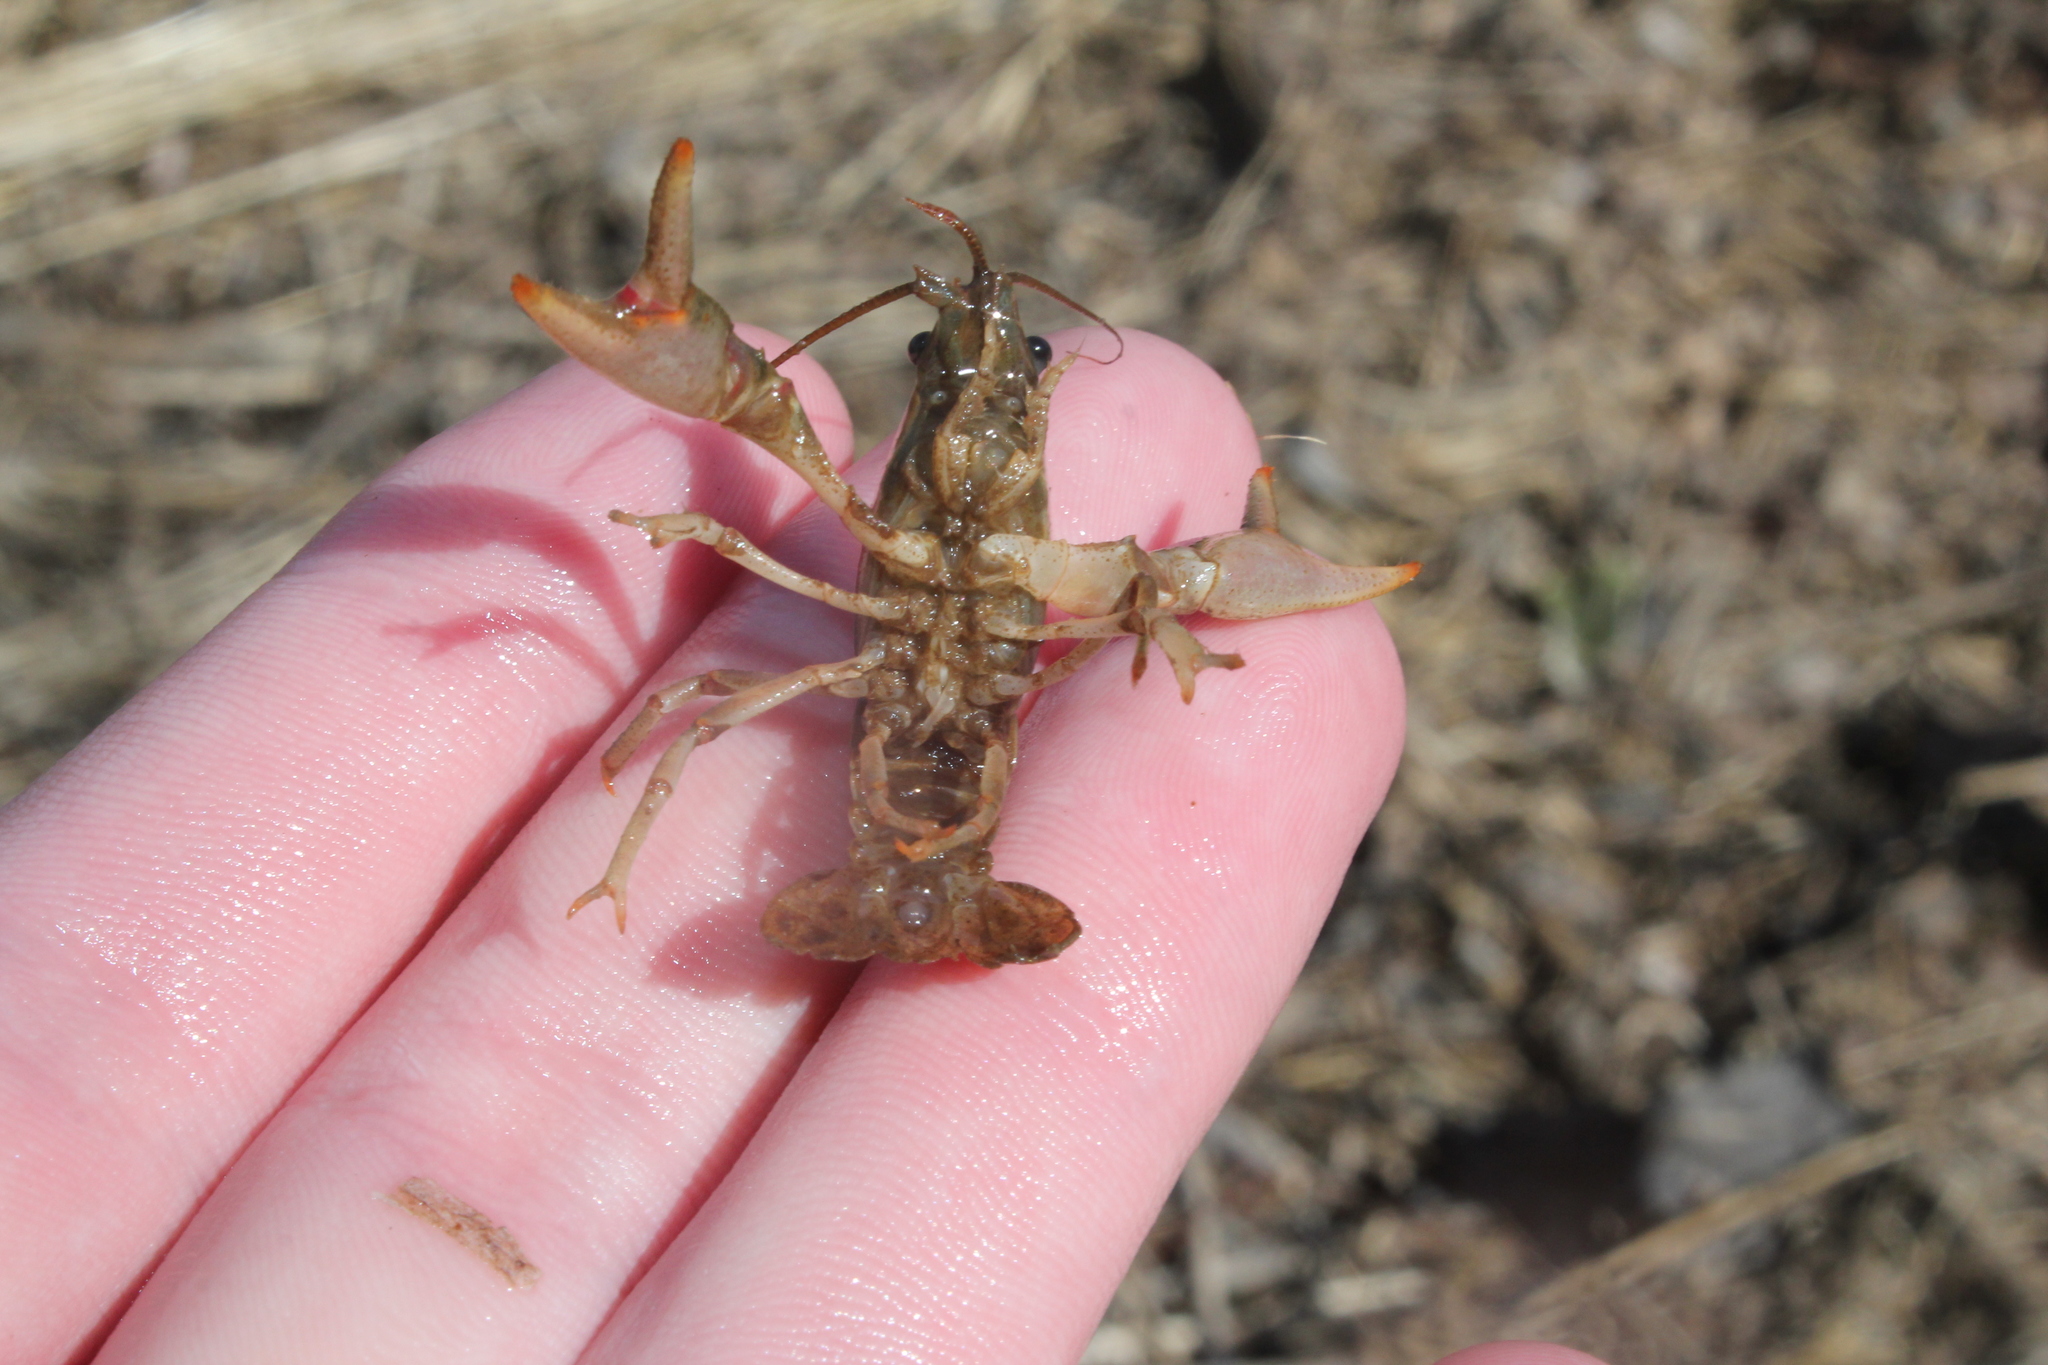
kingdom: Animalia
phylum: Arthropoda
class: Malacostraca
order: Decapoda
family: Cambaridae
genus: Faxonius
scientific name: Faxonius propinquus
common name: Northern clearwater crayfish
